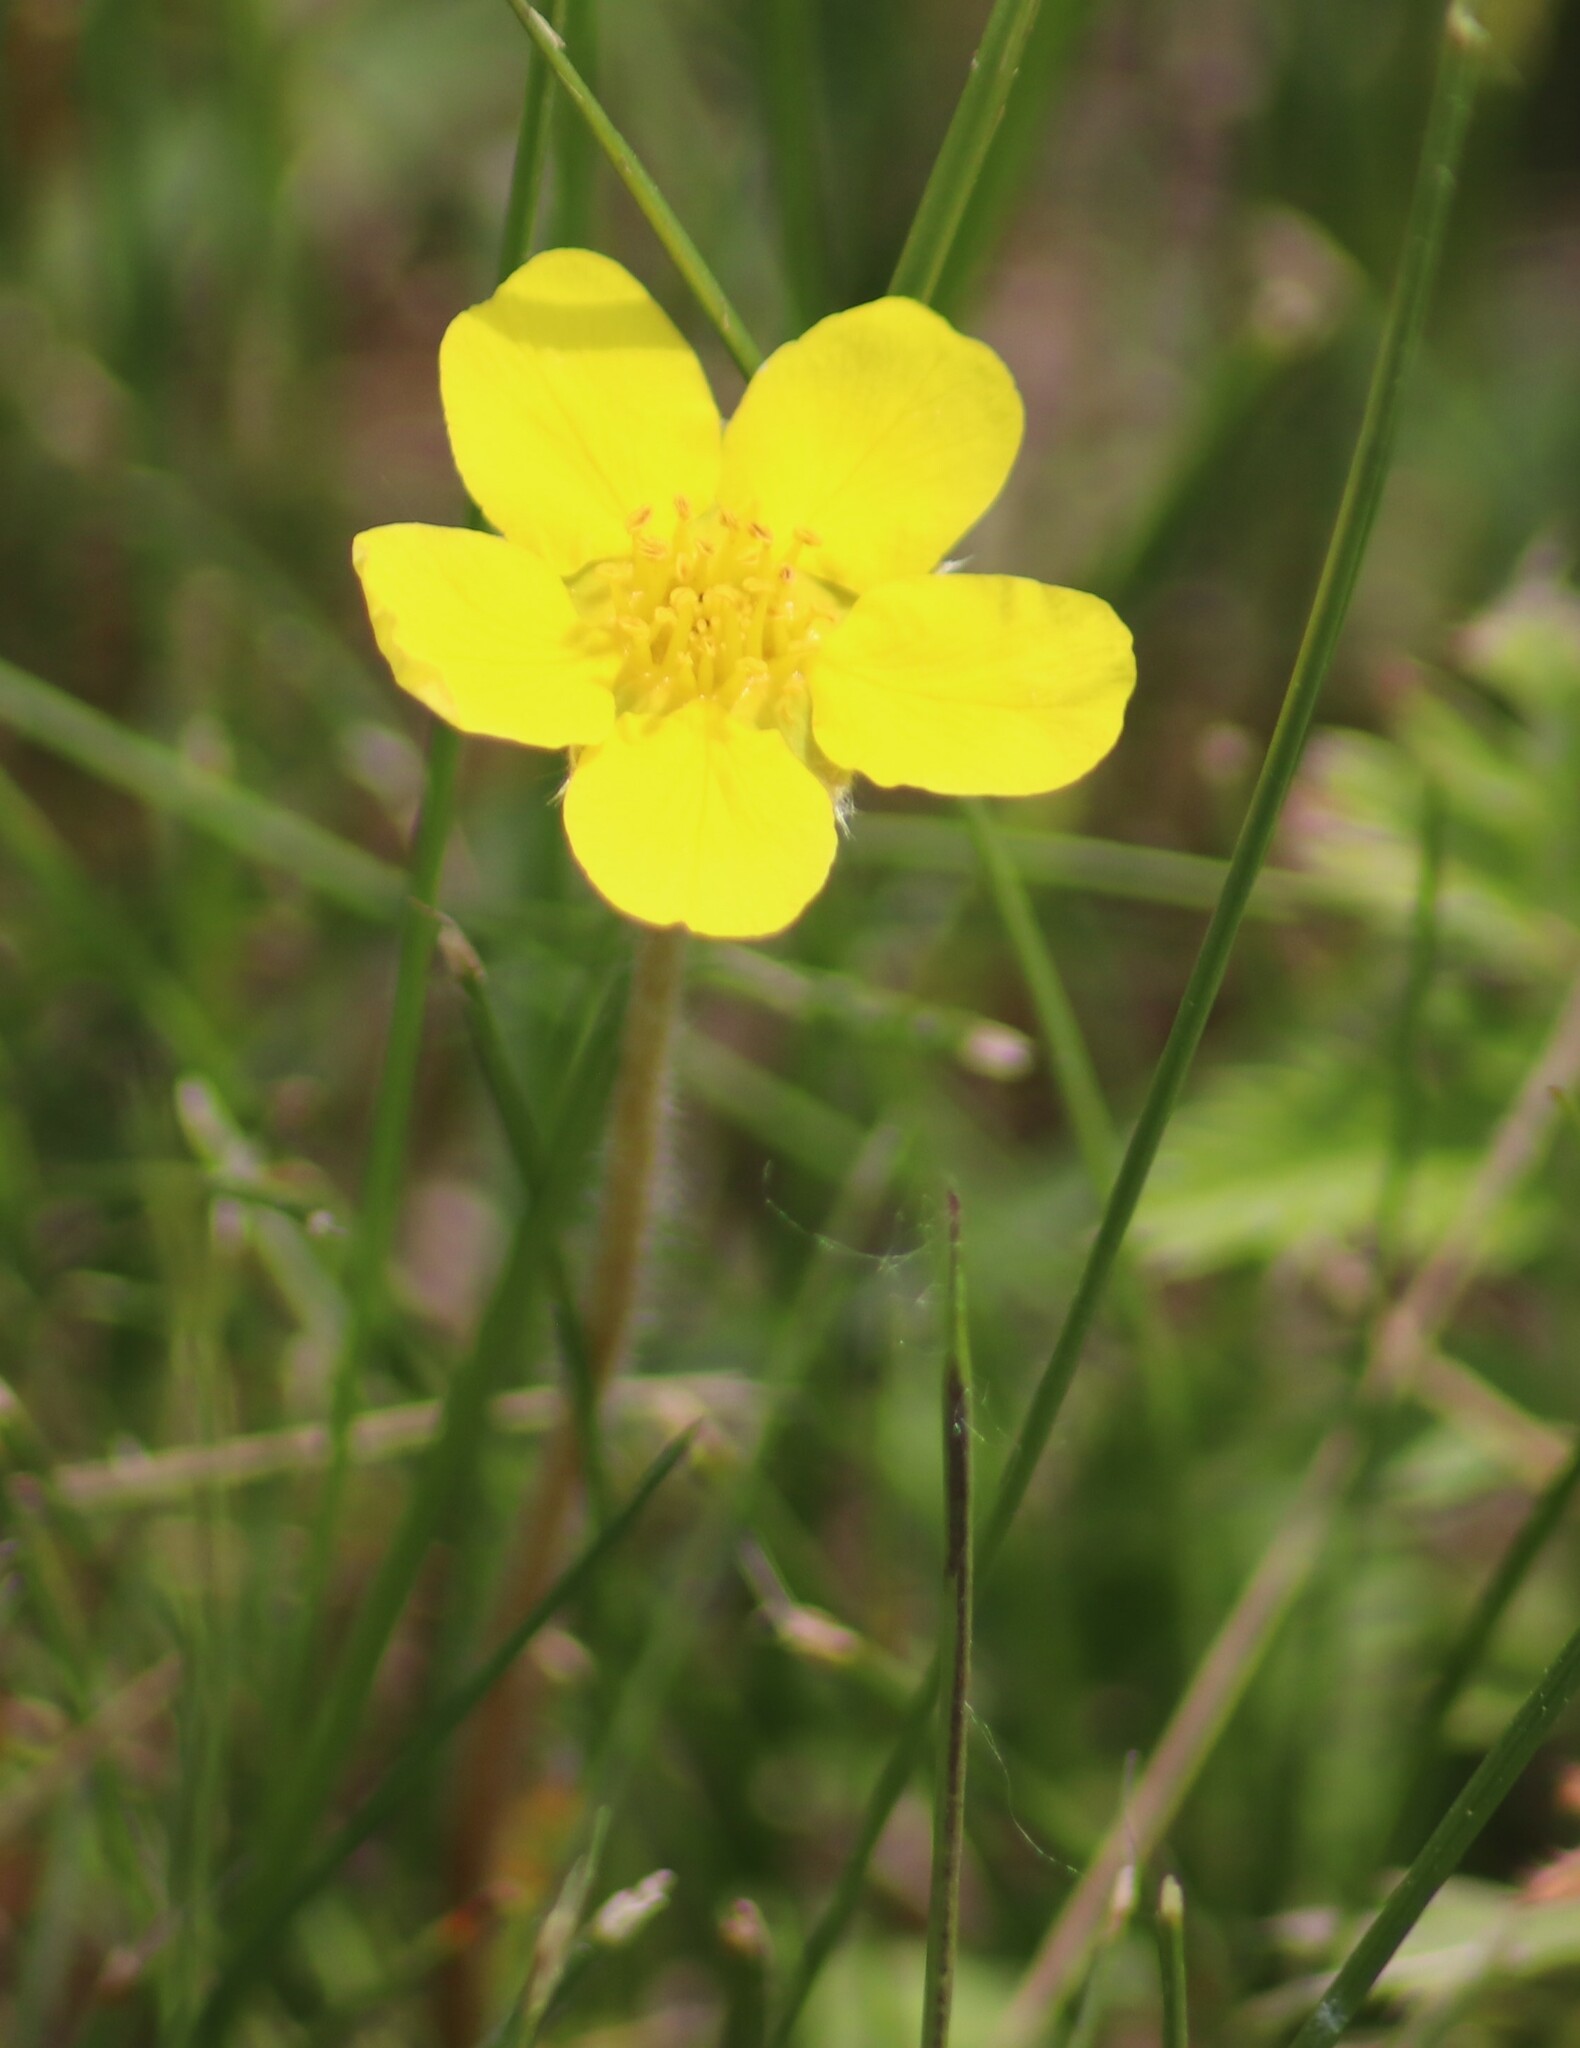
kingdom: Plantae
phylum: Tracheophyta
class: Magnoliopsida
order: Rosales
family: Rosaceae
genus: Argentina
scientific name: Argentina anserina
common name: Common silverweed
